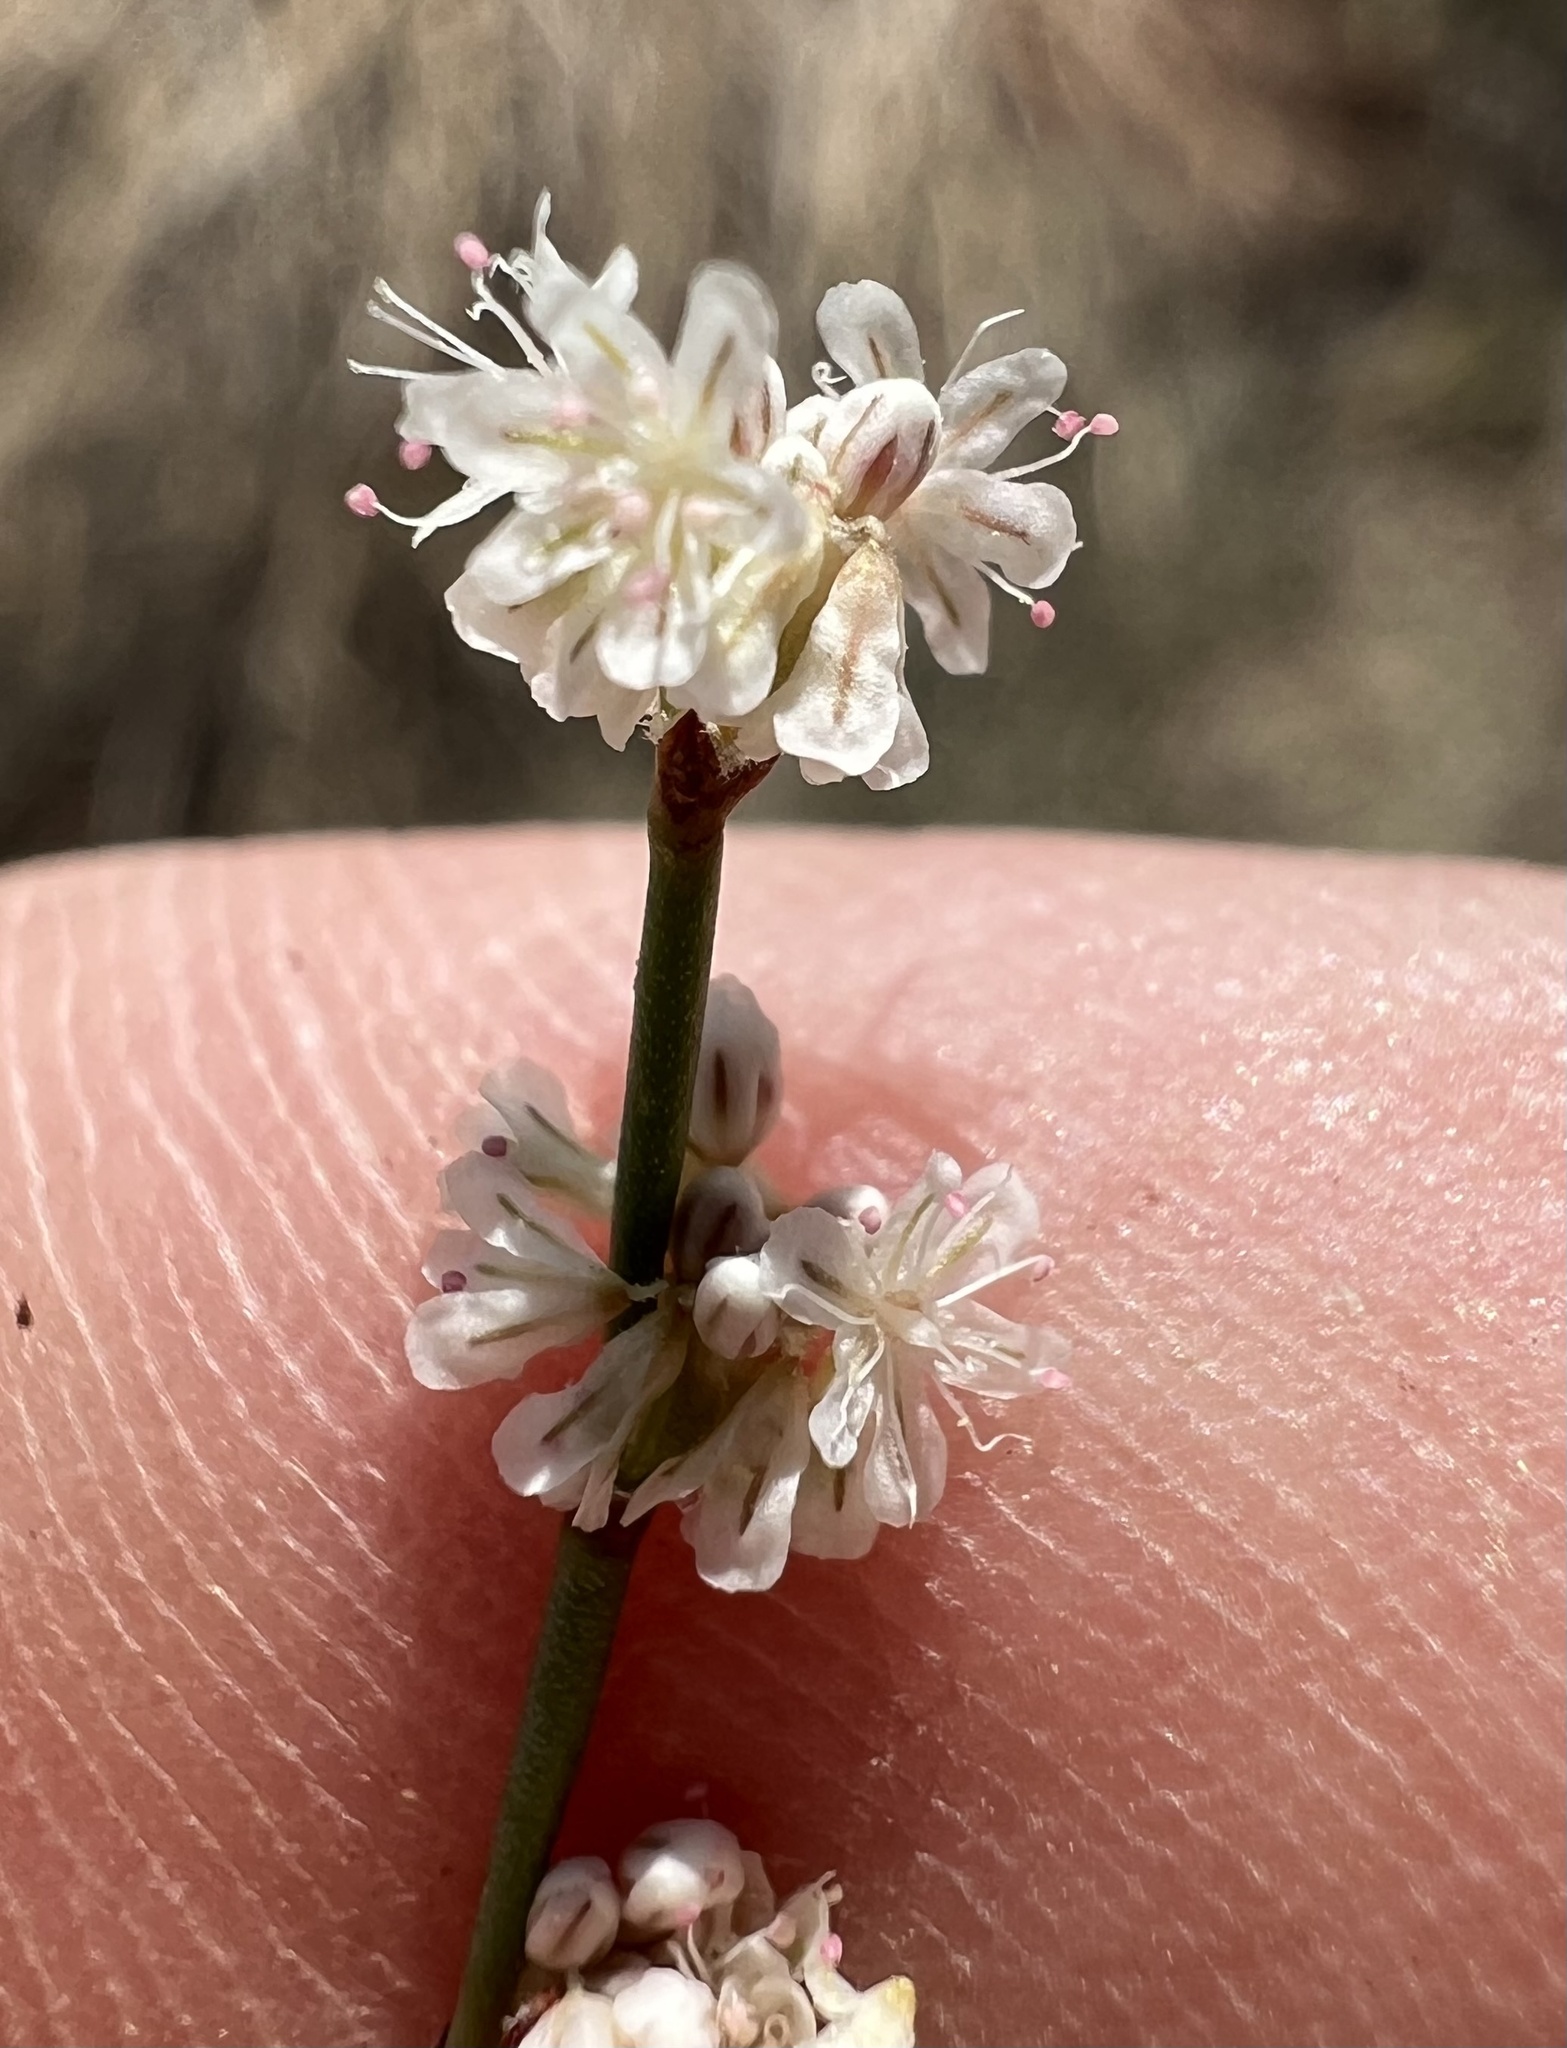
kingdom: Plantae
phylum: Tracheophyta
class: Magnoliopsida
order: Caryophyllales
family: Polygonaceae
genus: Eriogonum
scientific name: Eriogonum baileyi
